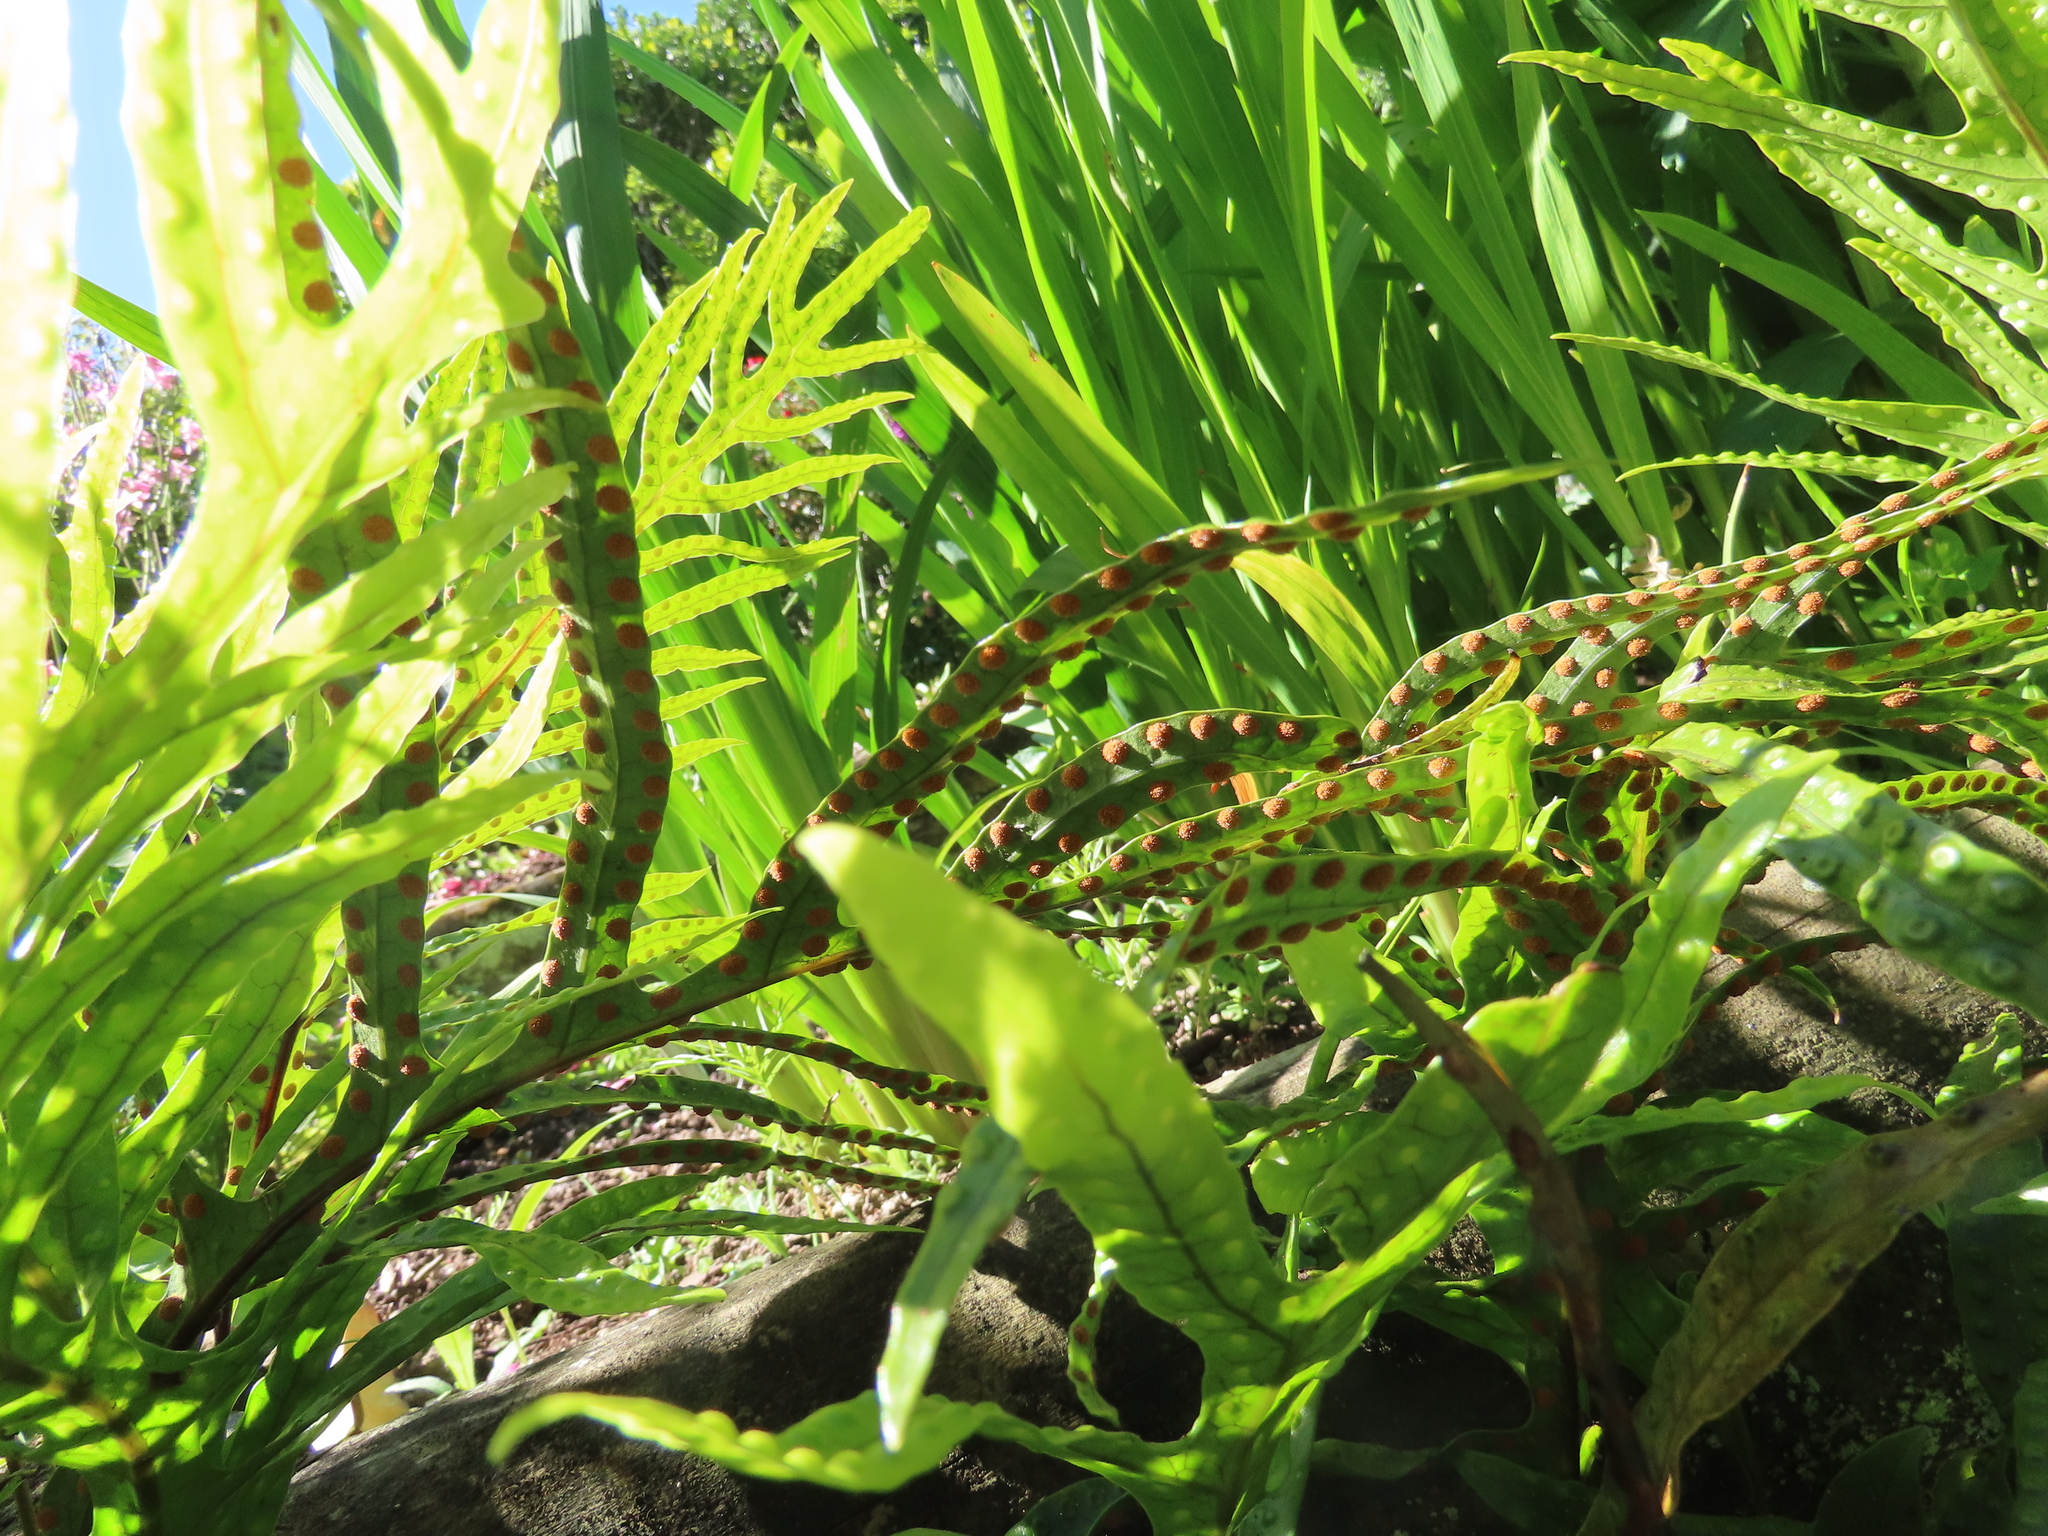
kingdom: Plantae
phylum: Tracheophyta
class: Polypodiopsida
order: Polypodiales
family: Polypodiaceae
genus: Lecanopteris
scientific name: Lecanopteris pustulata
